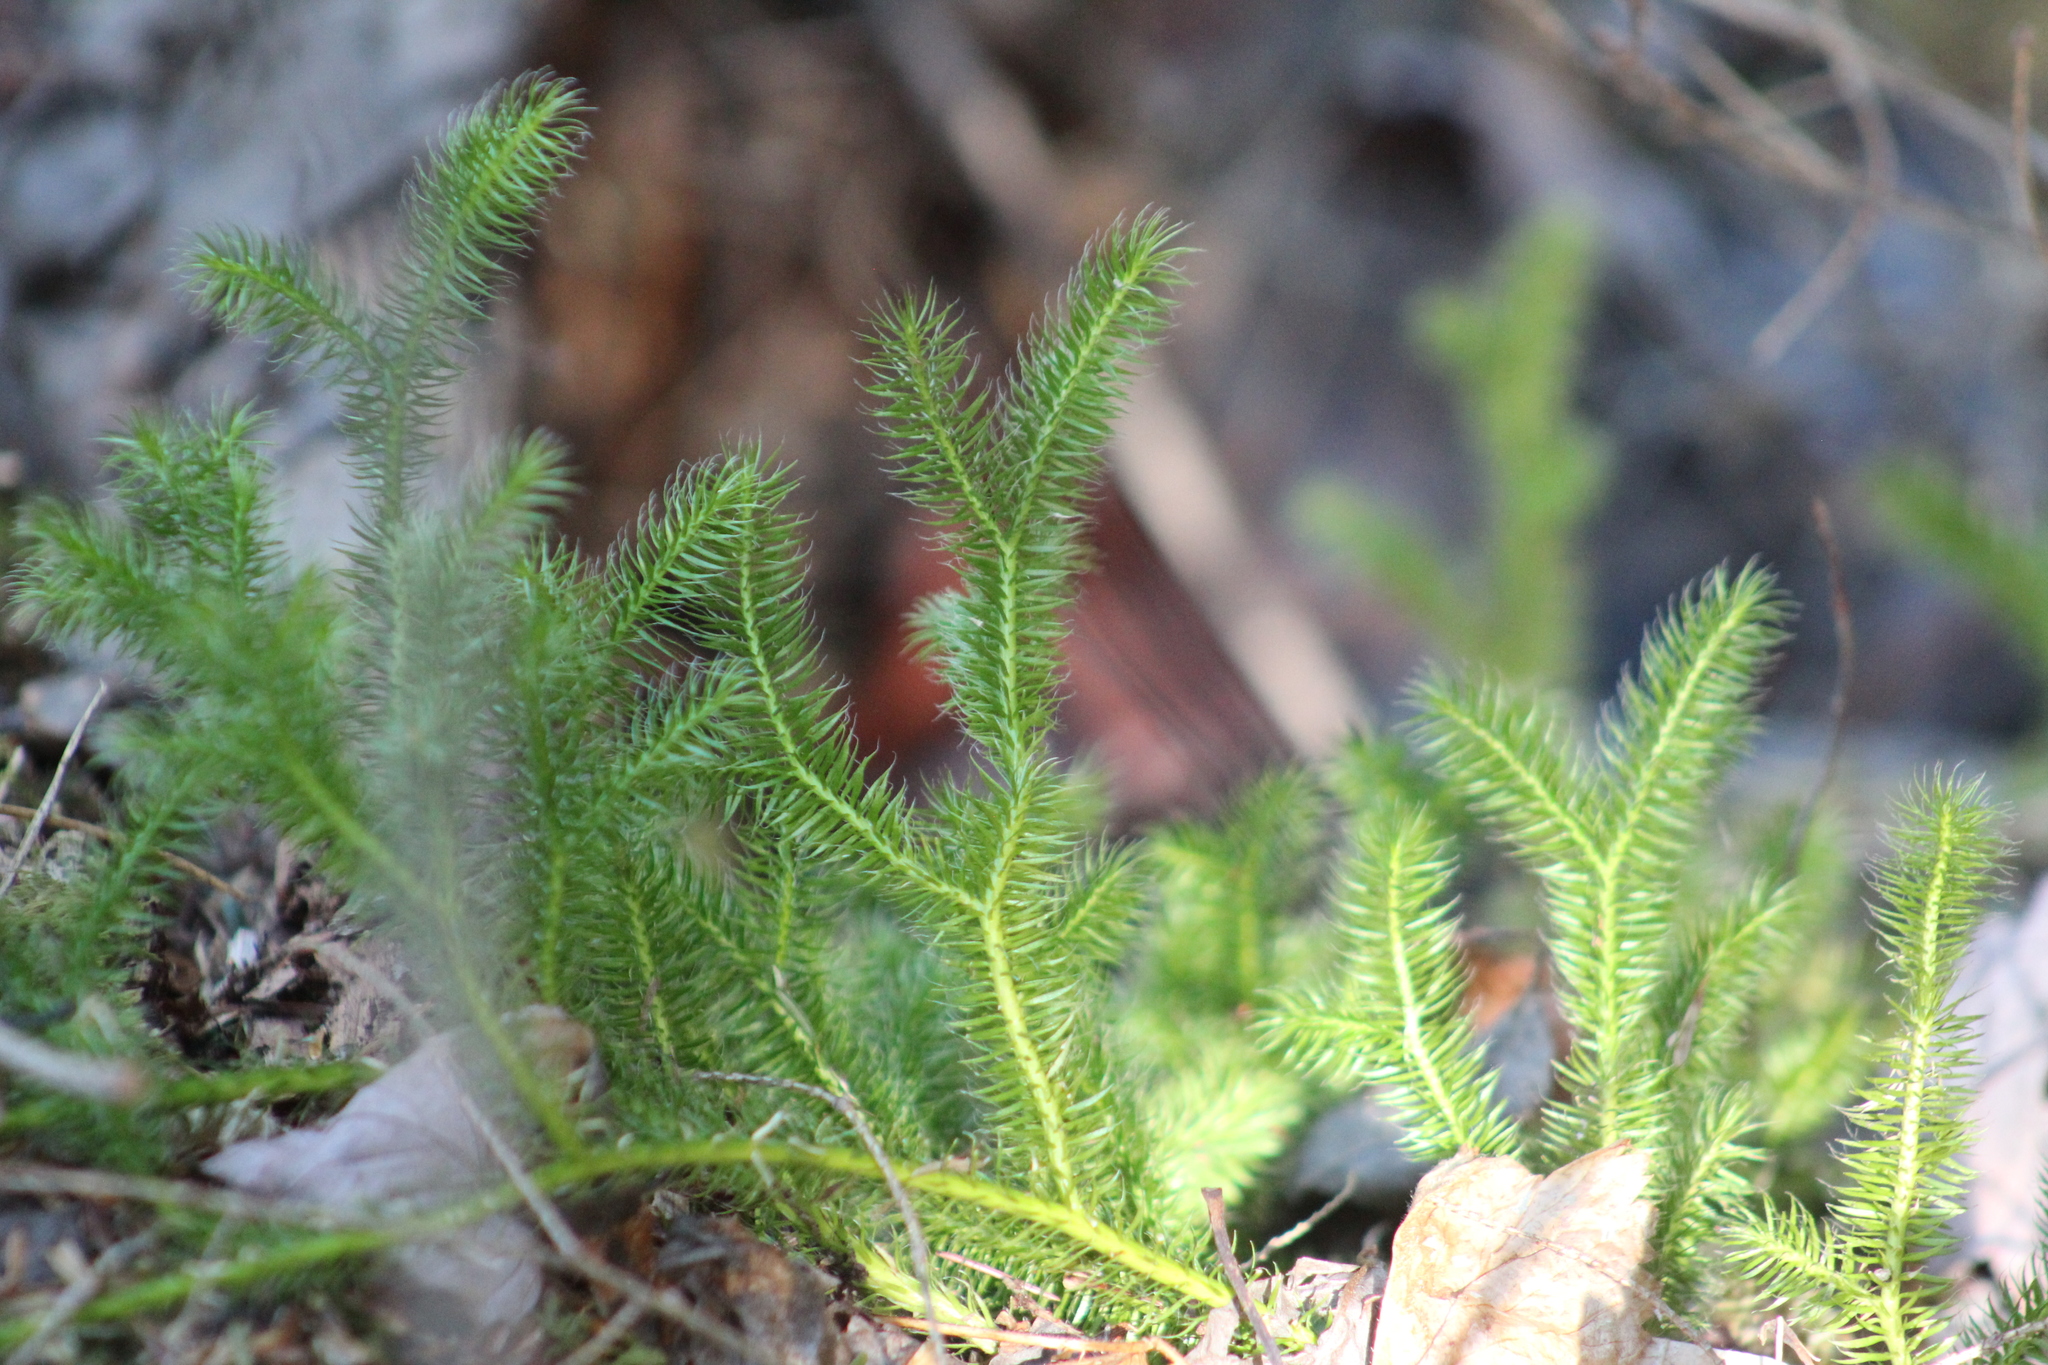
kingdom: Plantae
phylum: Tracheophyta
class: Lycopodiopsida
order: Lycopodiales
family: Lycopodiaceae
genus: Lycopodium
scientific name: Lycopodium clavatum
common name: Stag's-horn clubmoss
